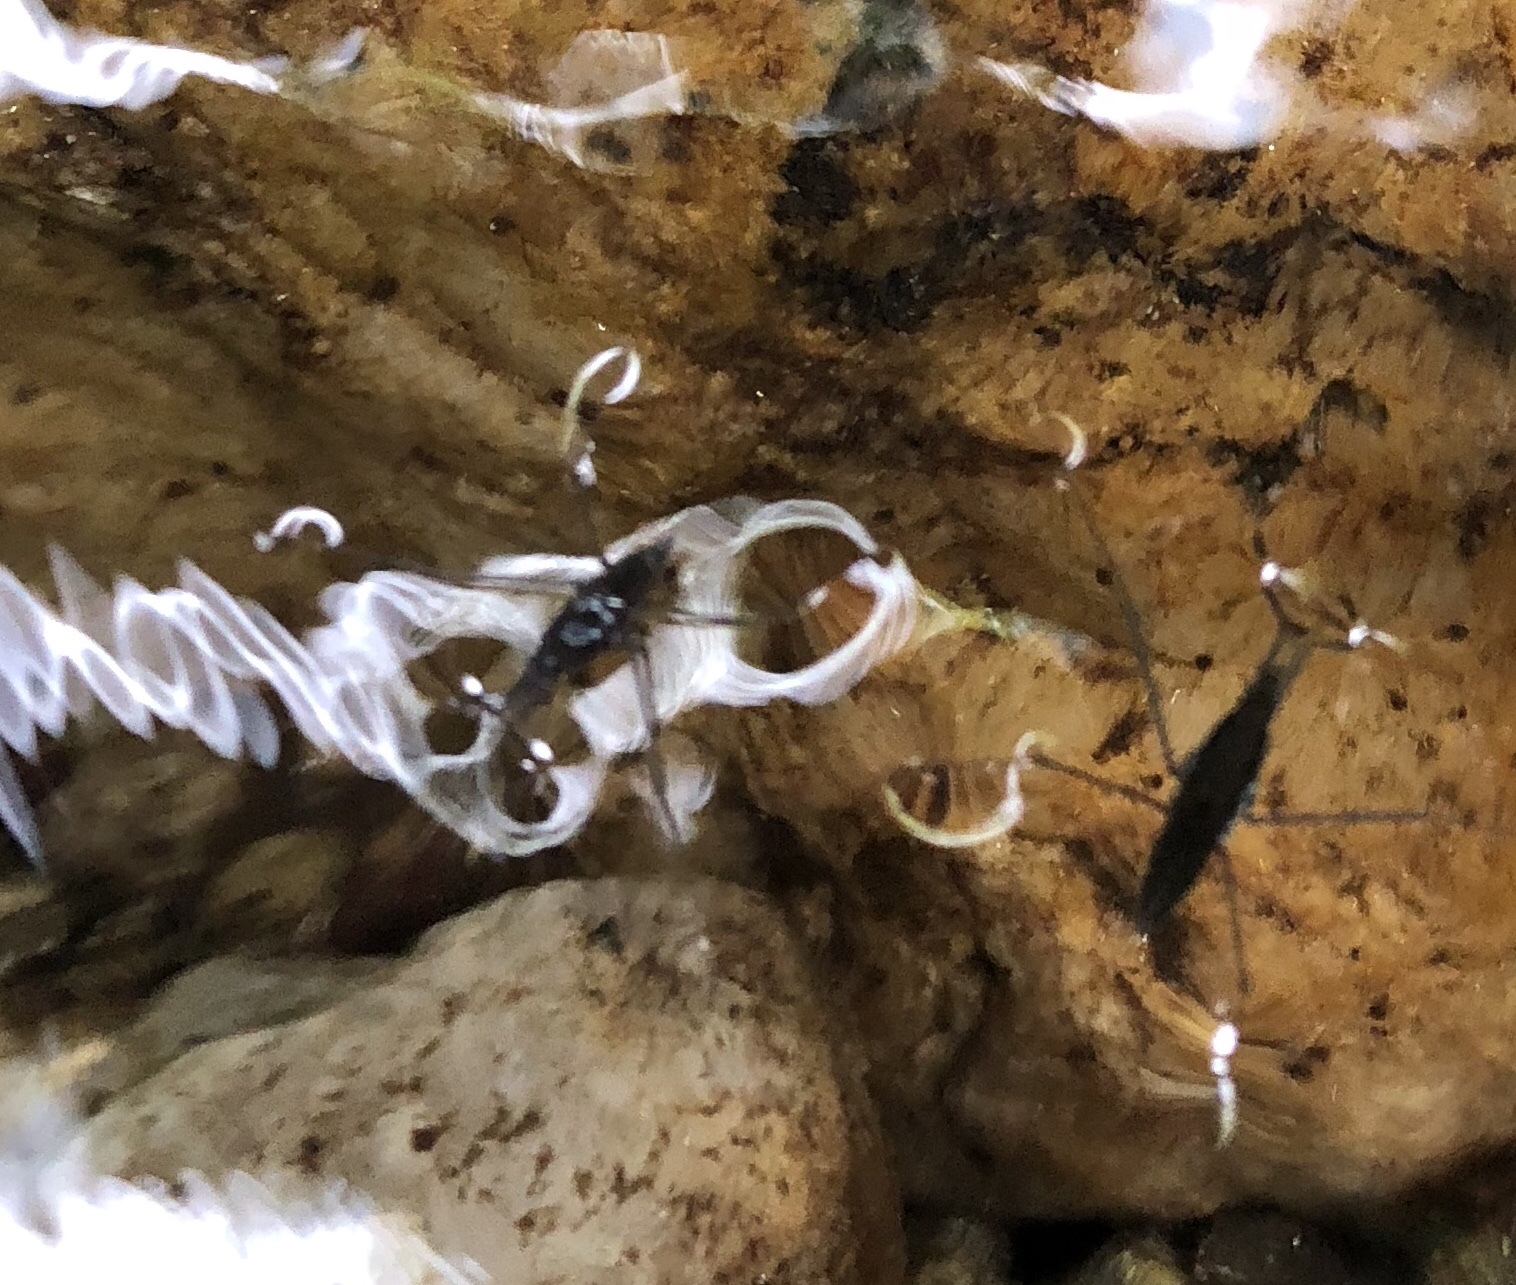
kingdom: Animalia
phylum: Arthropoda
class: Insecta
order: Hemiptera
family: Gerridae
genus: Aquarius
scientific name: Aquarius
